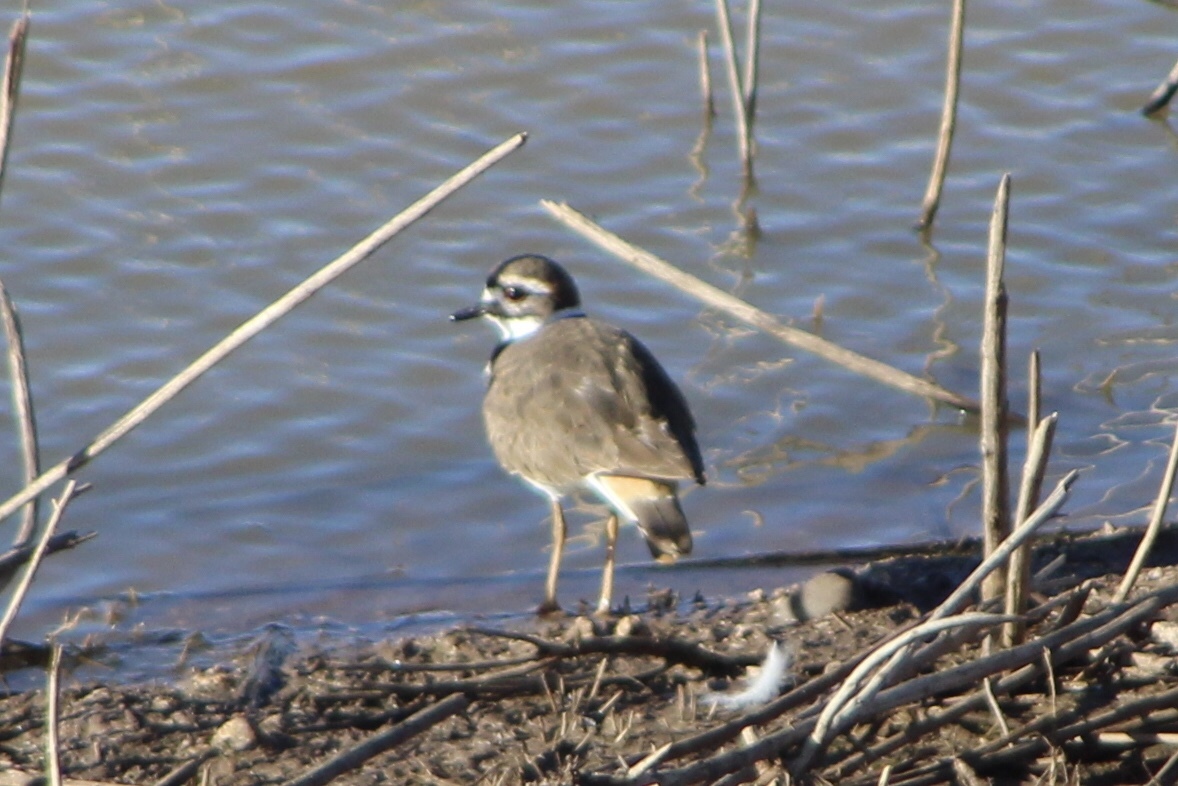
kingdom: Animalia
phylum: Chordata
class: Aves
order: Charadriiformes
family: Charadriidae
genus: Charadrius
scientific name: Charadrius vociferus
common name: Killdeer
